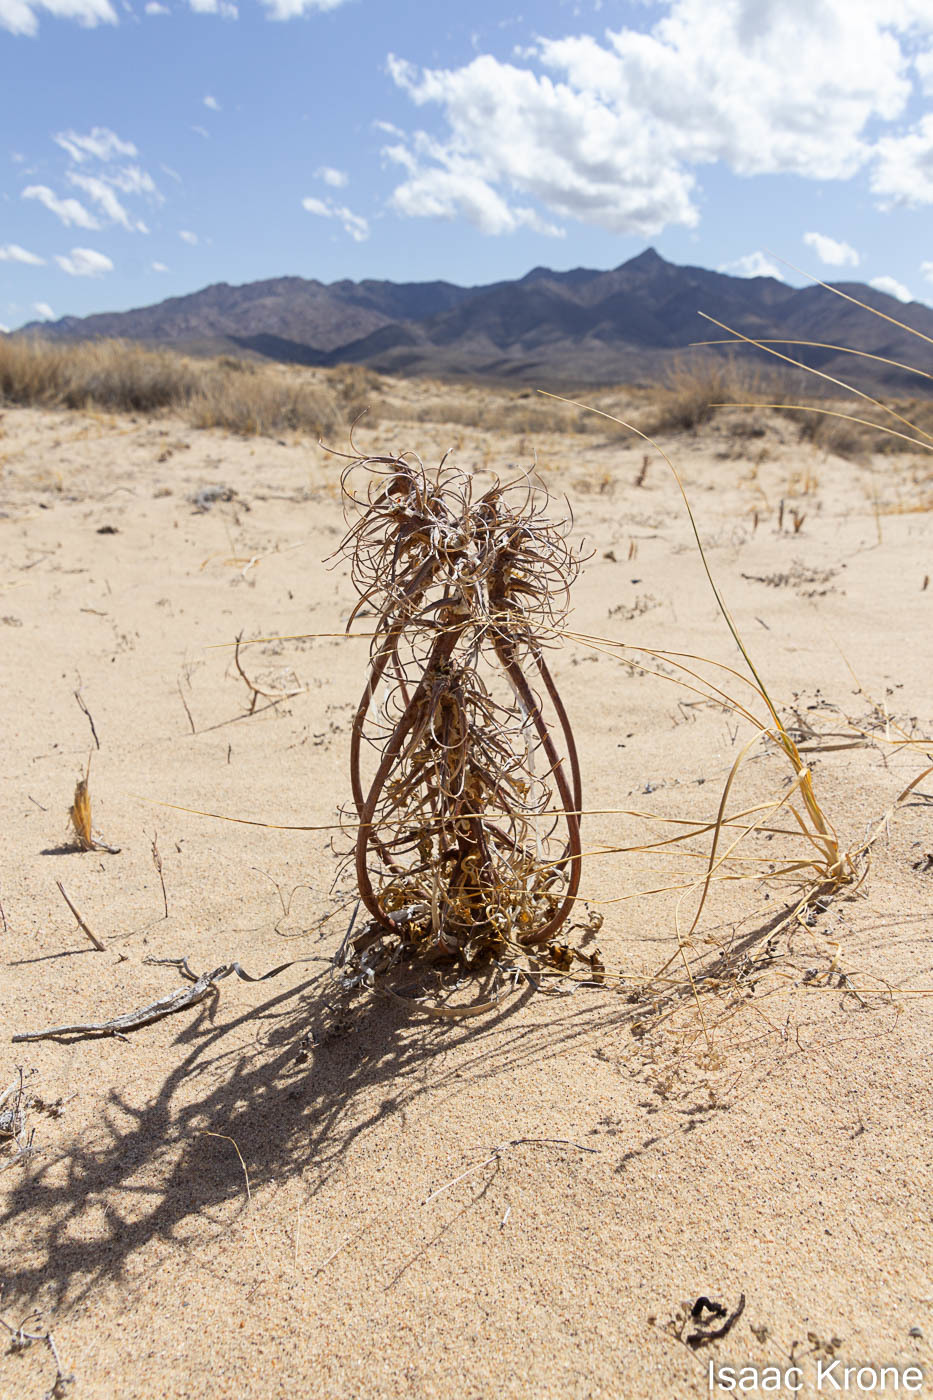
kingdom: Plantae
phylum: Tracheophyta
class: Magnoliopsida
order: Myrtales
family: Onagraceae
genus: Oenothera
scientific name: Oenothera deltoides
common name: Basket evening-primrose
